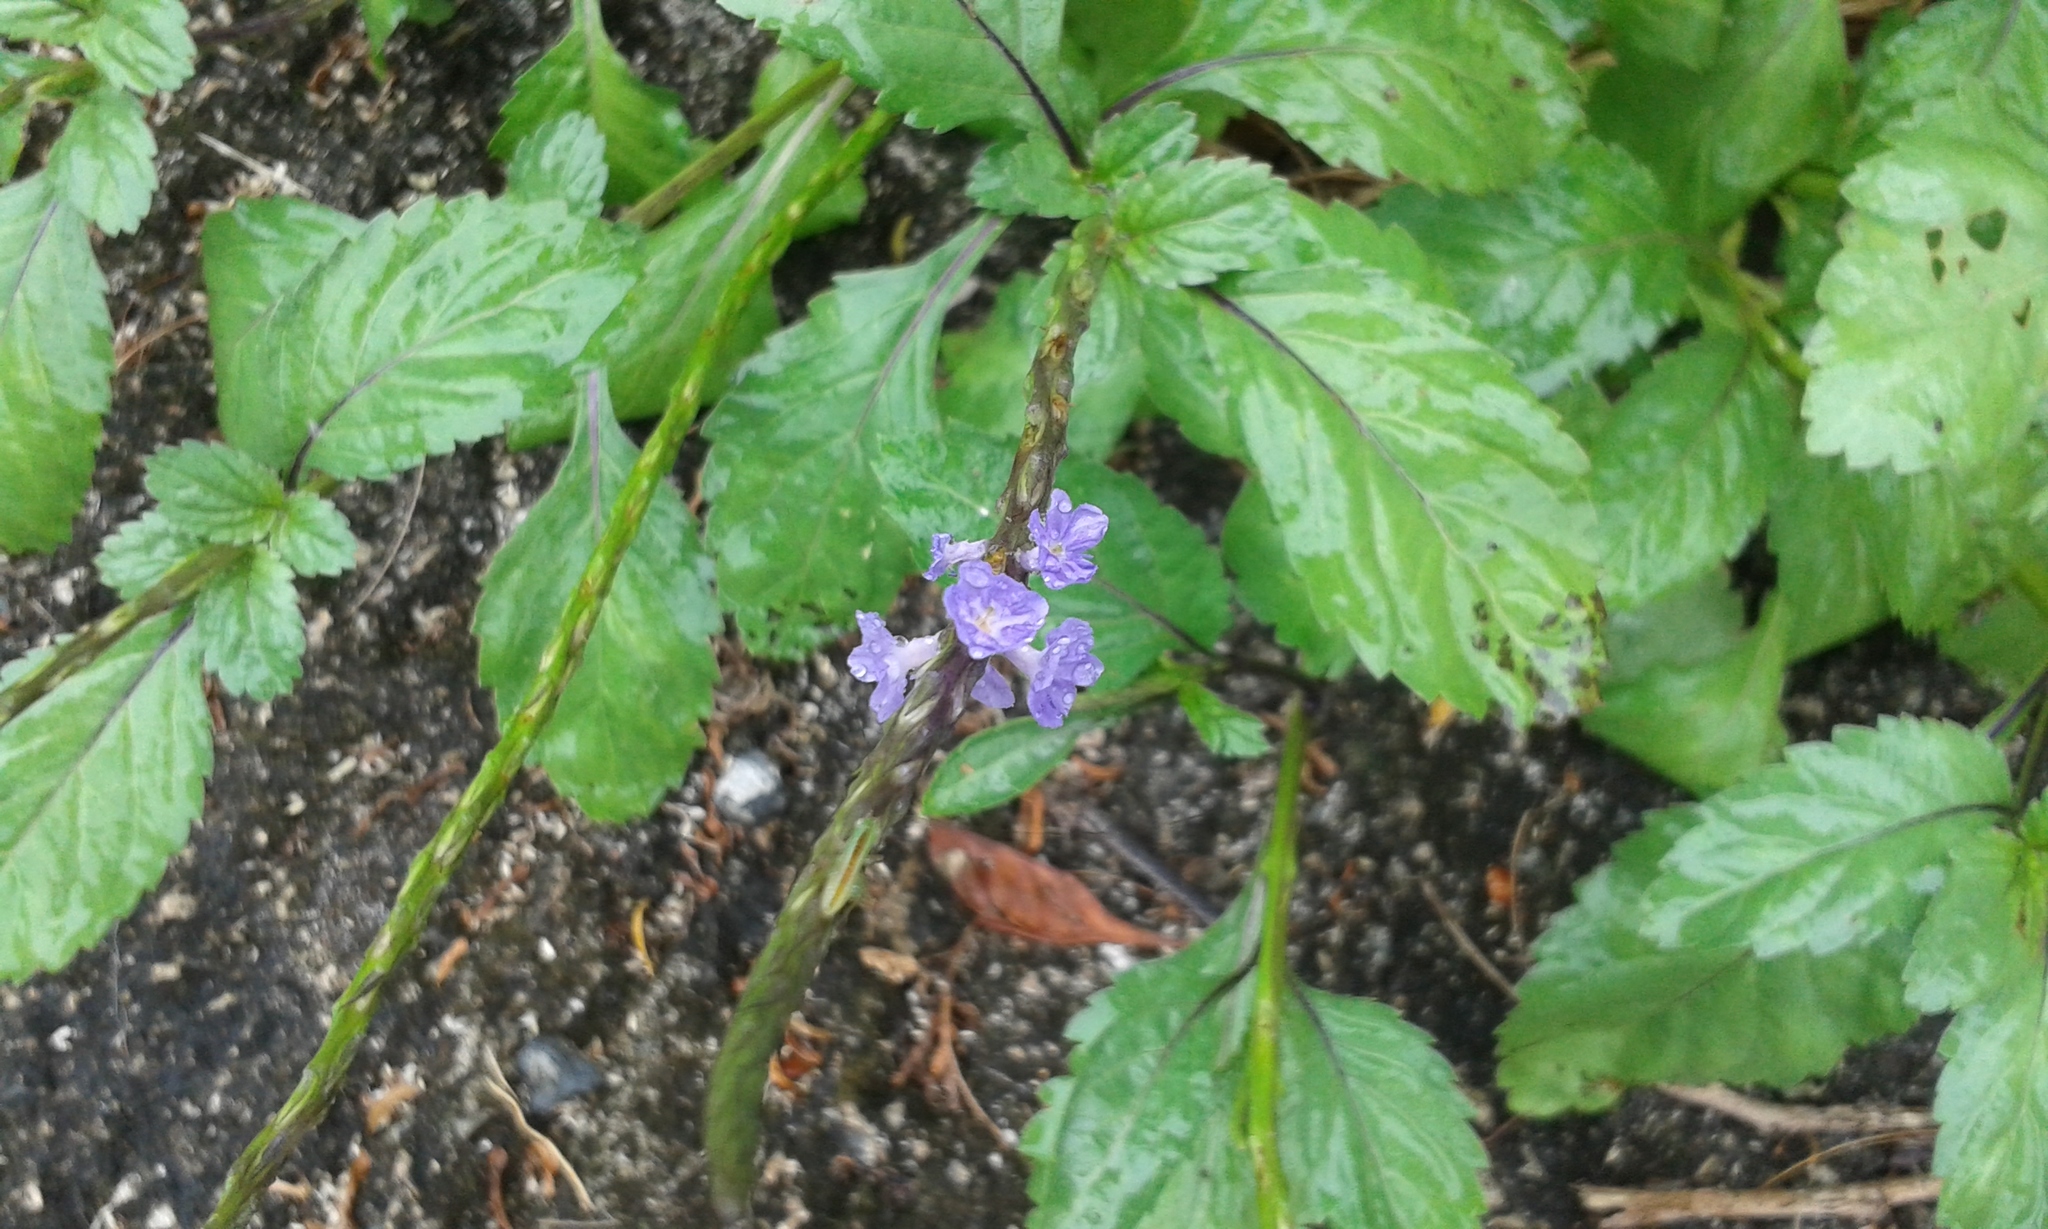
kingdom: Plantae
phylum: Tracheophyta
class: Magnoliopsida
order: Lamiales
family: Verbenaceae
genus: Stachytarpheta
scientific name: Stachytarpheta jamaicensis
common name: Light-blue snakeweed
